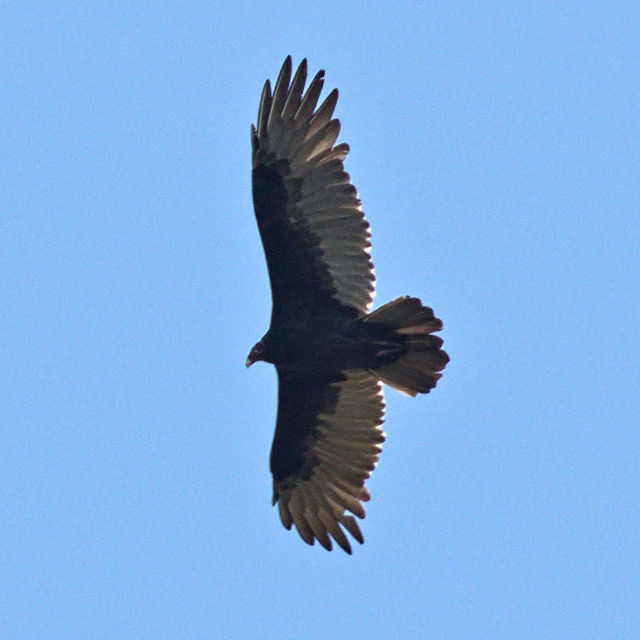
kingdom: Animalia
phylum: Chordata
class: Aves
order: Accipitriformes
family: Cathartidae
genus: Cathartes
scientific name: Cathartes aura
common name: Turkey vulture
